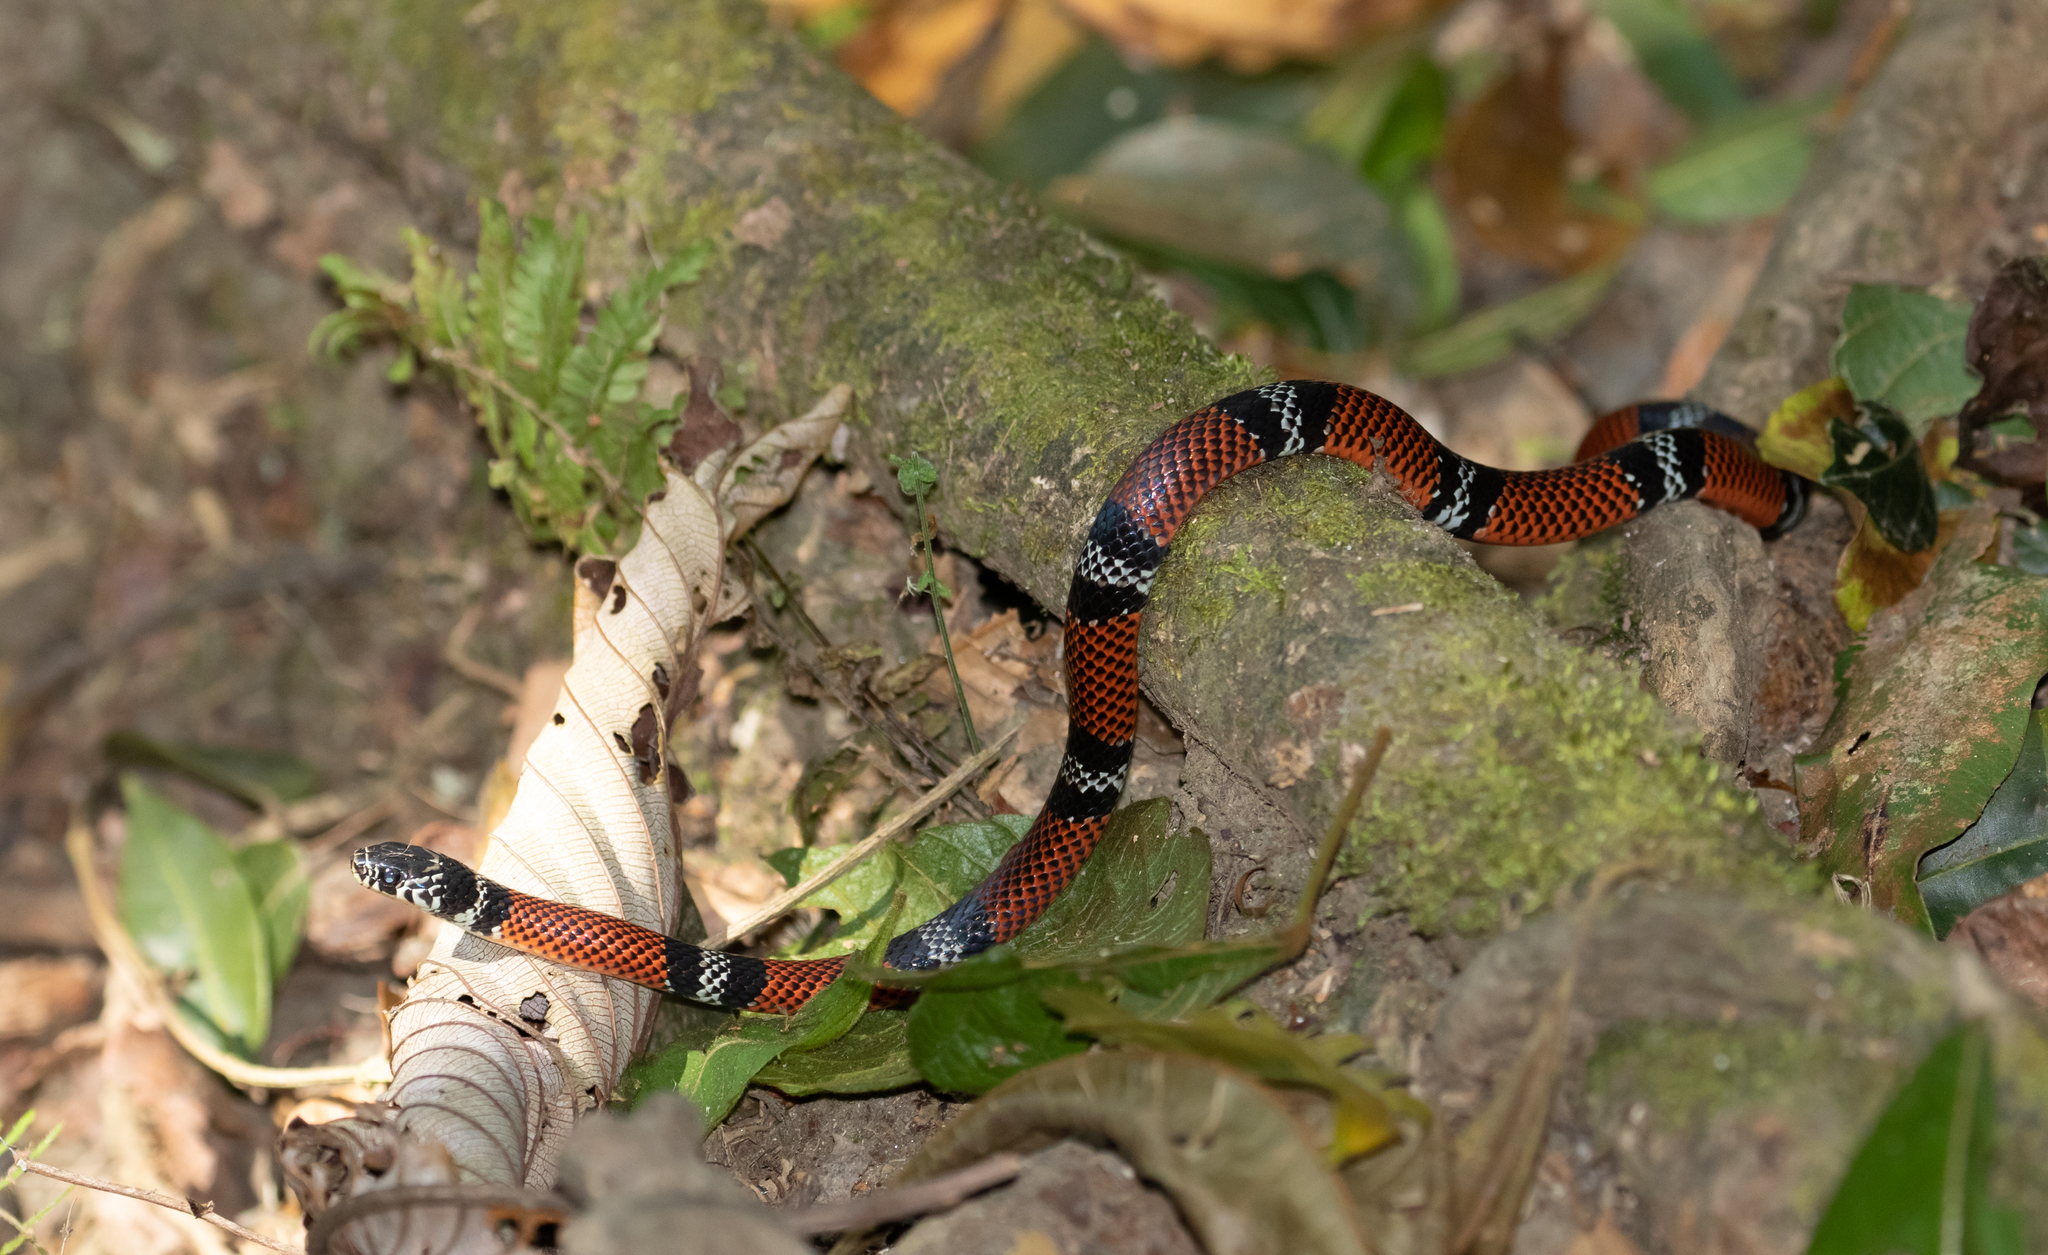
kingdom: Animalia
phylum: Chordata
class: Squamata
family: Colubridae
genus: Erythrolamprus
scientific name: Erythrolamprus bizona
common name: Double-banded coral snake mimic
